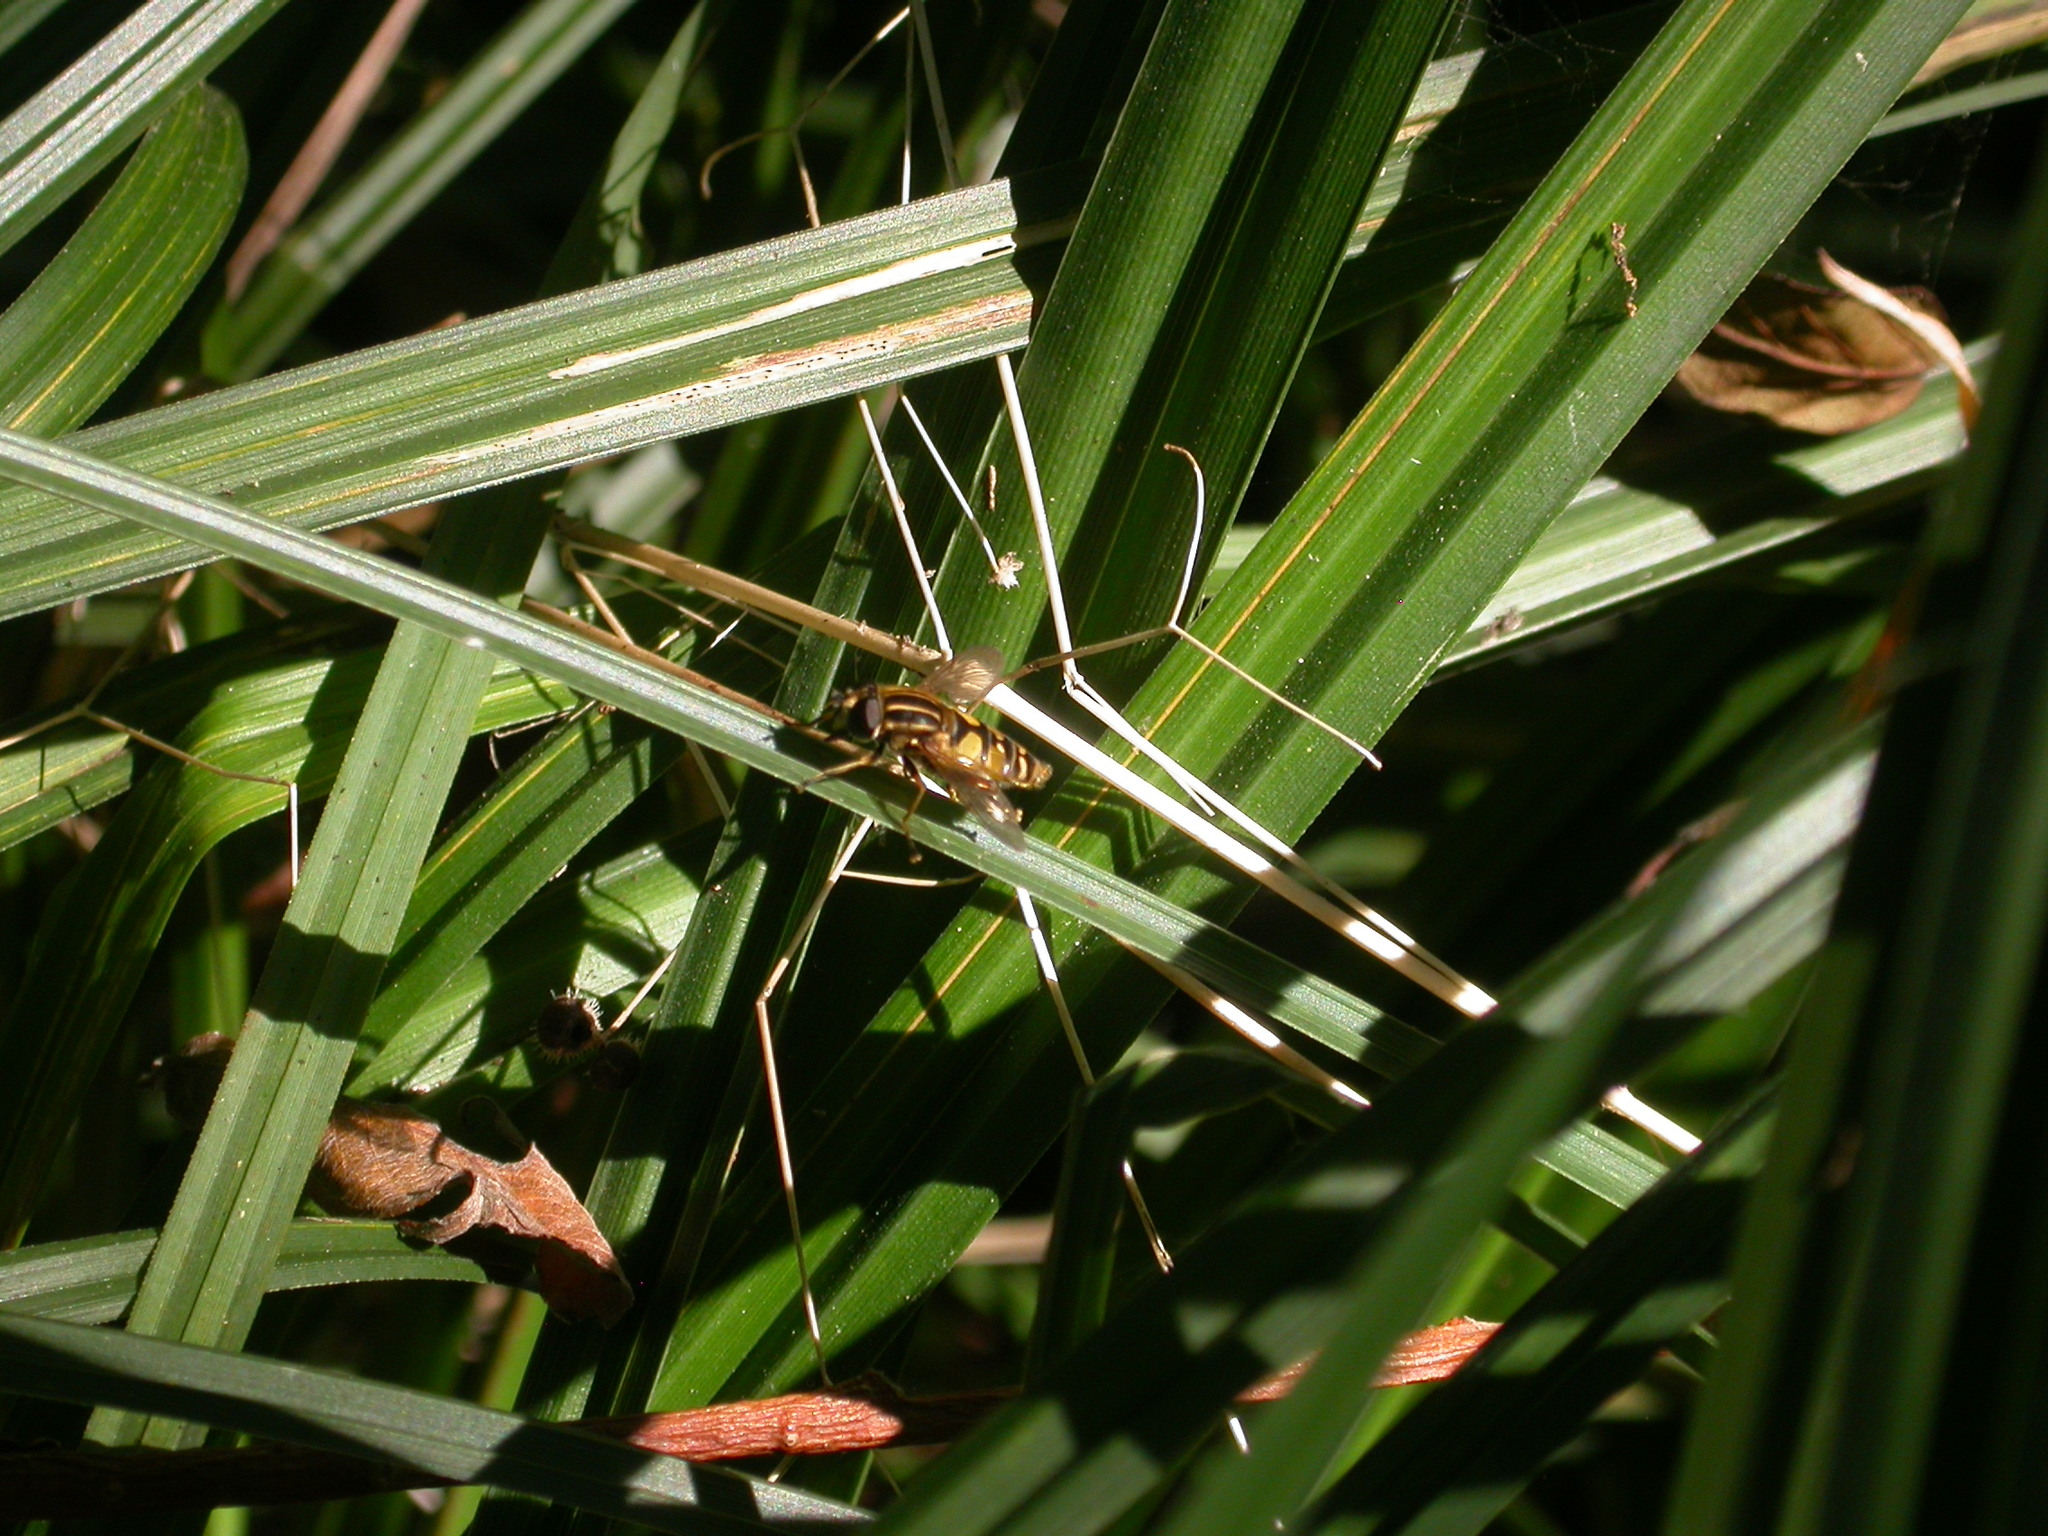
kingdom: Animalia
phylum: Arthropoda
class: Insecta
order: Diptera
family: Syrphidae
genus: Helophilus
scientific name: Helophilus pendulus
